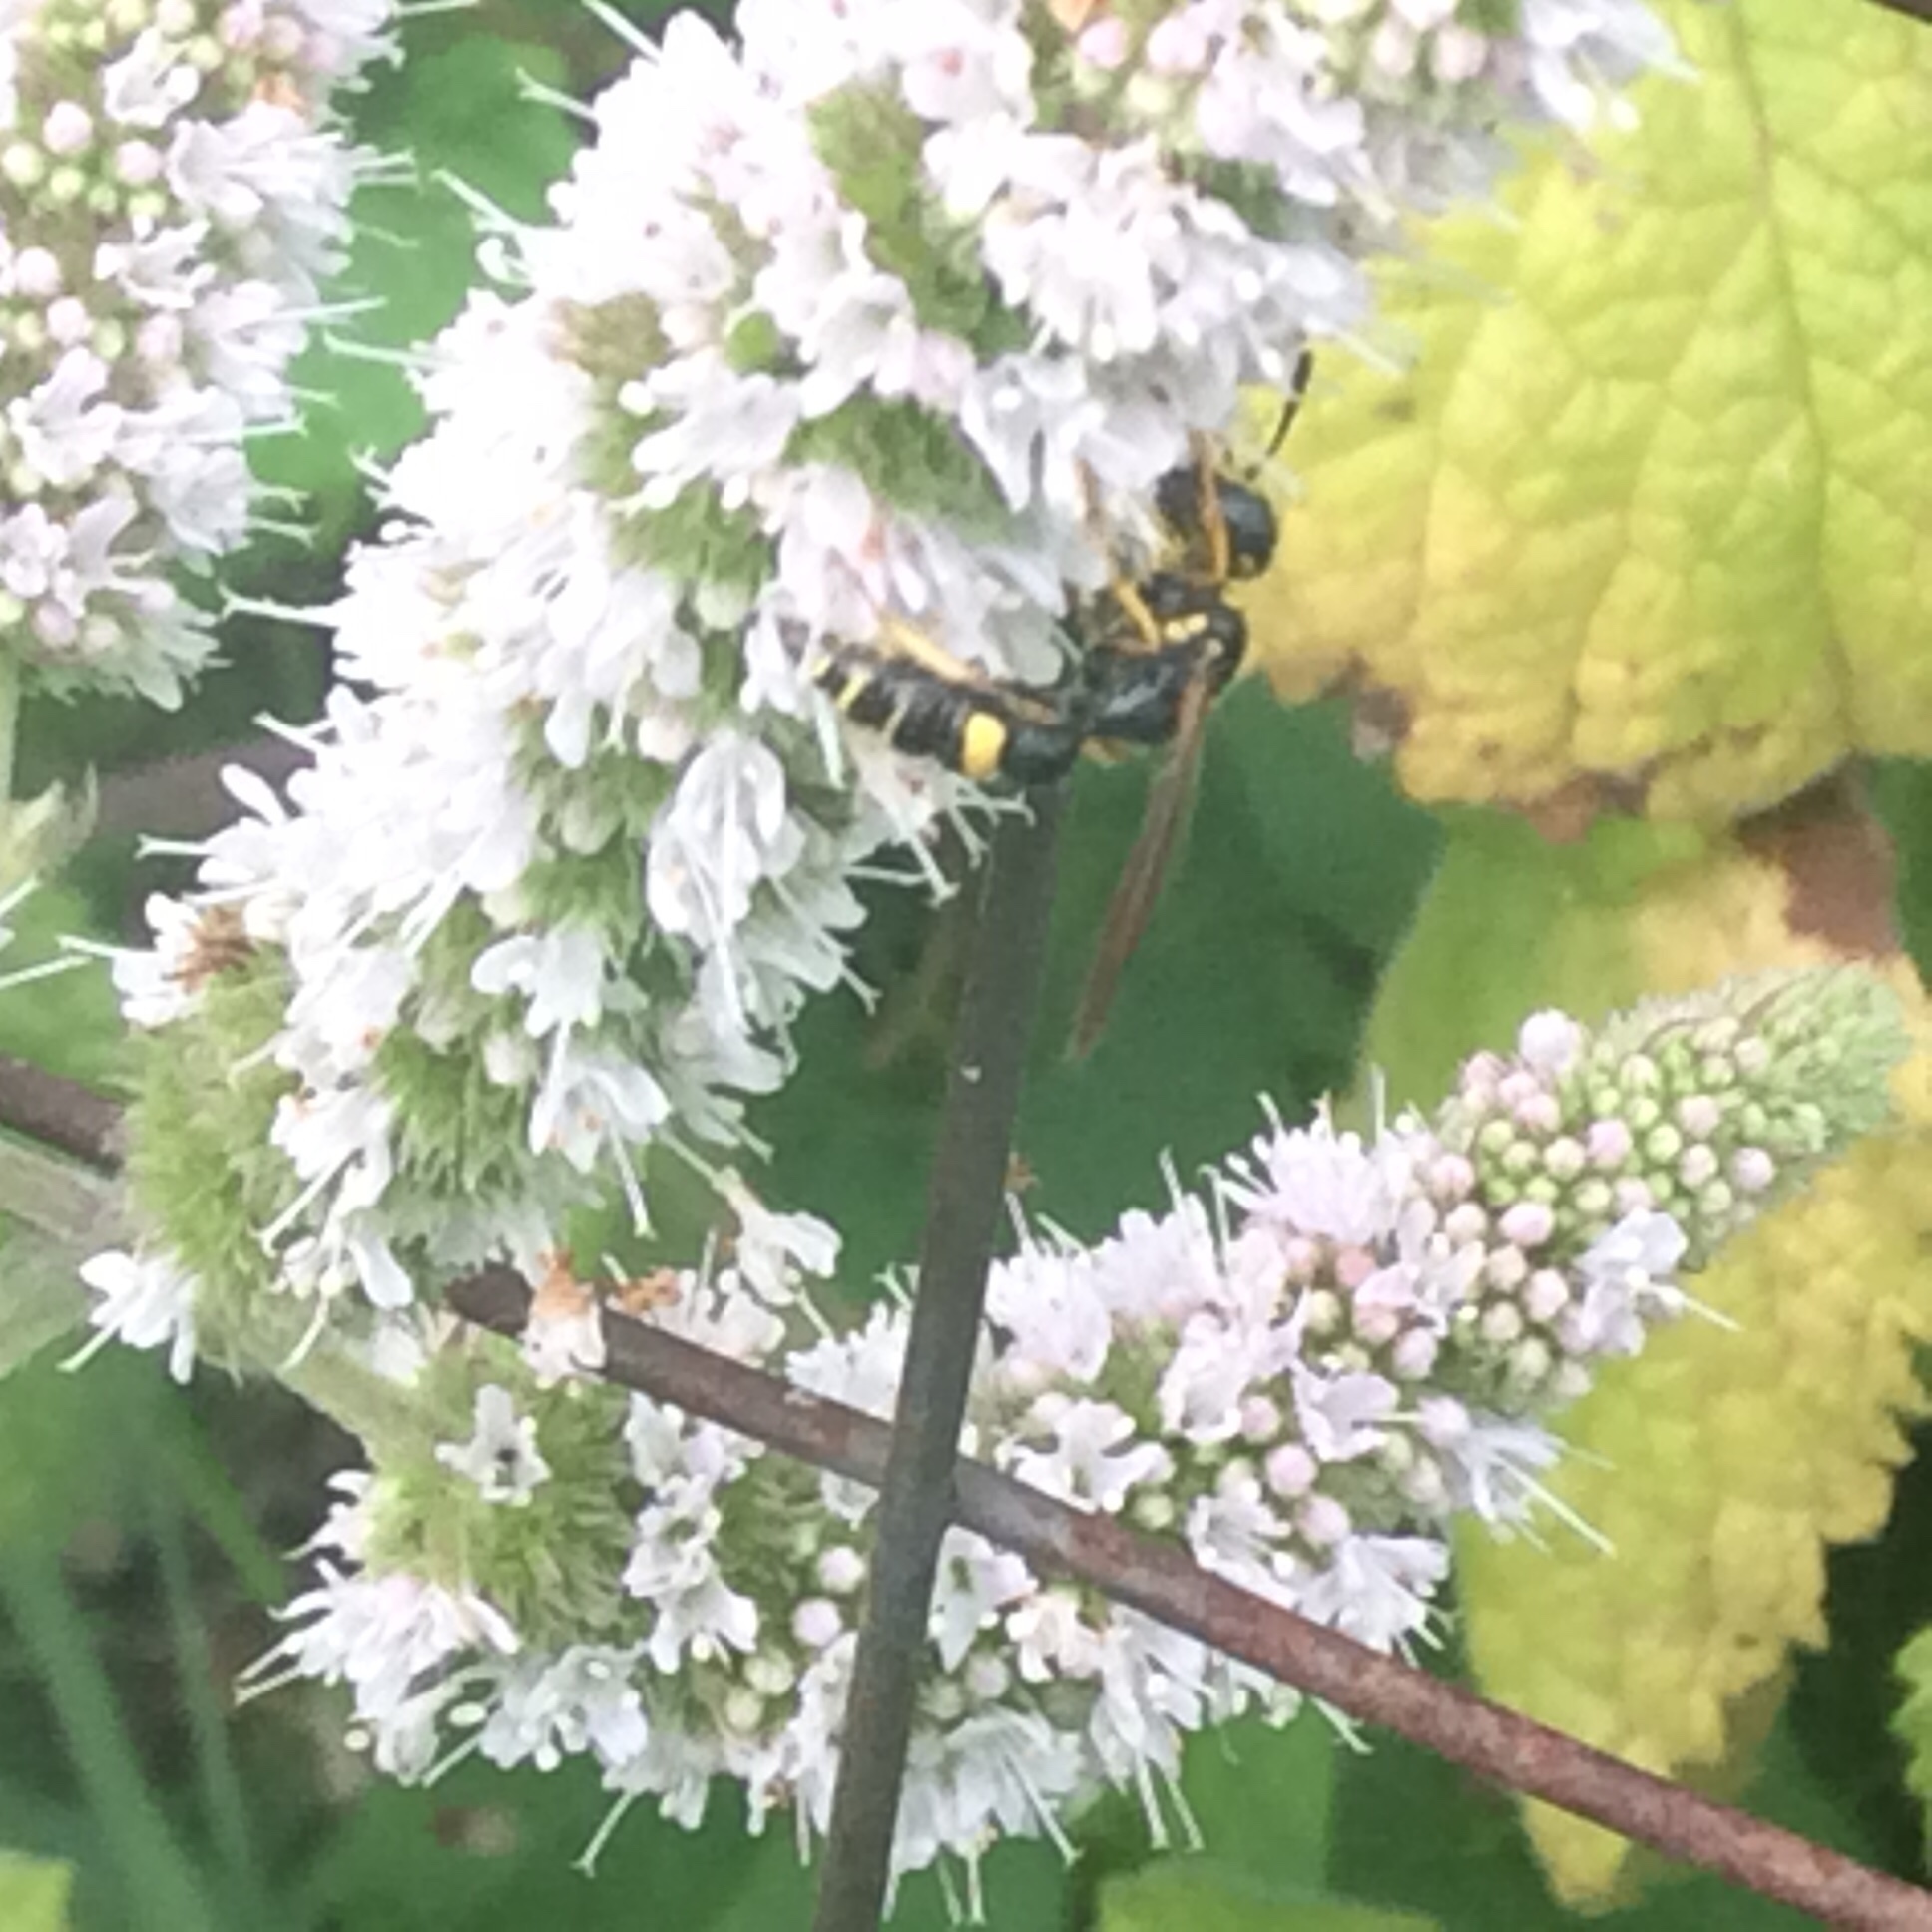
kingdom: Animalia
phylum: Arthropoda
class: Insecta
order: Hymenoptera
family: Crabronidae
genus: Philanthus
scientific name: Philanthus gibbosus
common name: Humped beewolf
